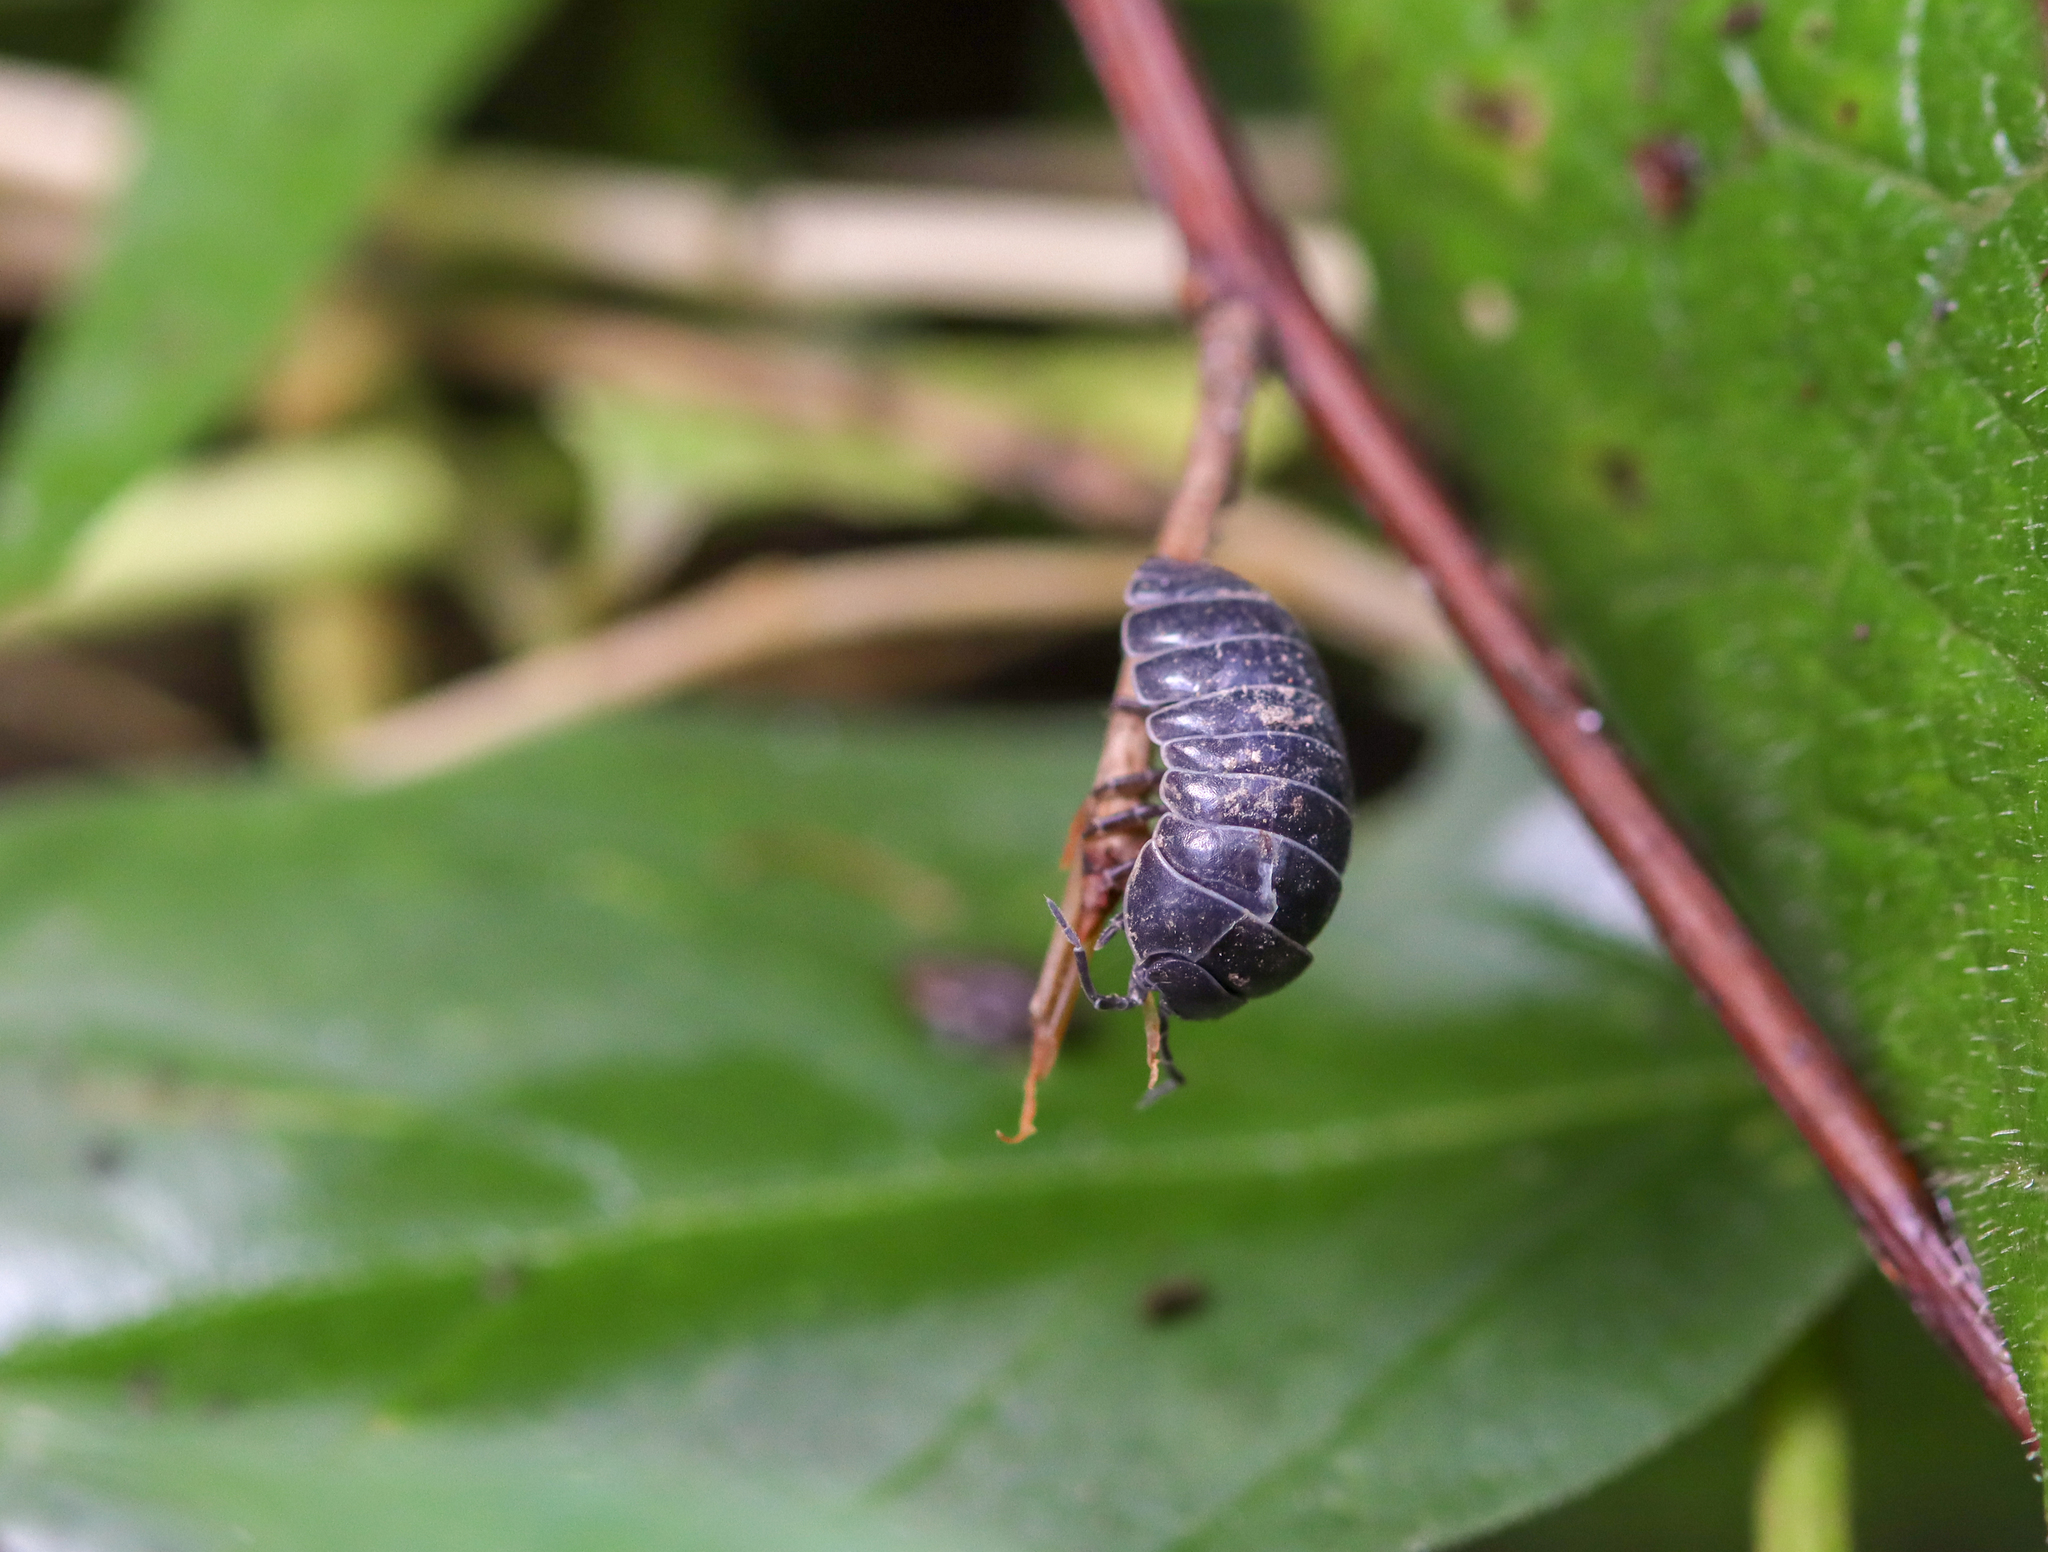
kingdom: Animalia
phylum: Arthropoda
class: Malacostraca
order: Isopoda
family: Armadillidiidae
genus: Armadillidium
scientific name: Armadillidium vulgare
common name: Common pill woodlouse
